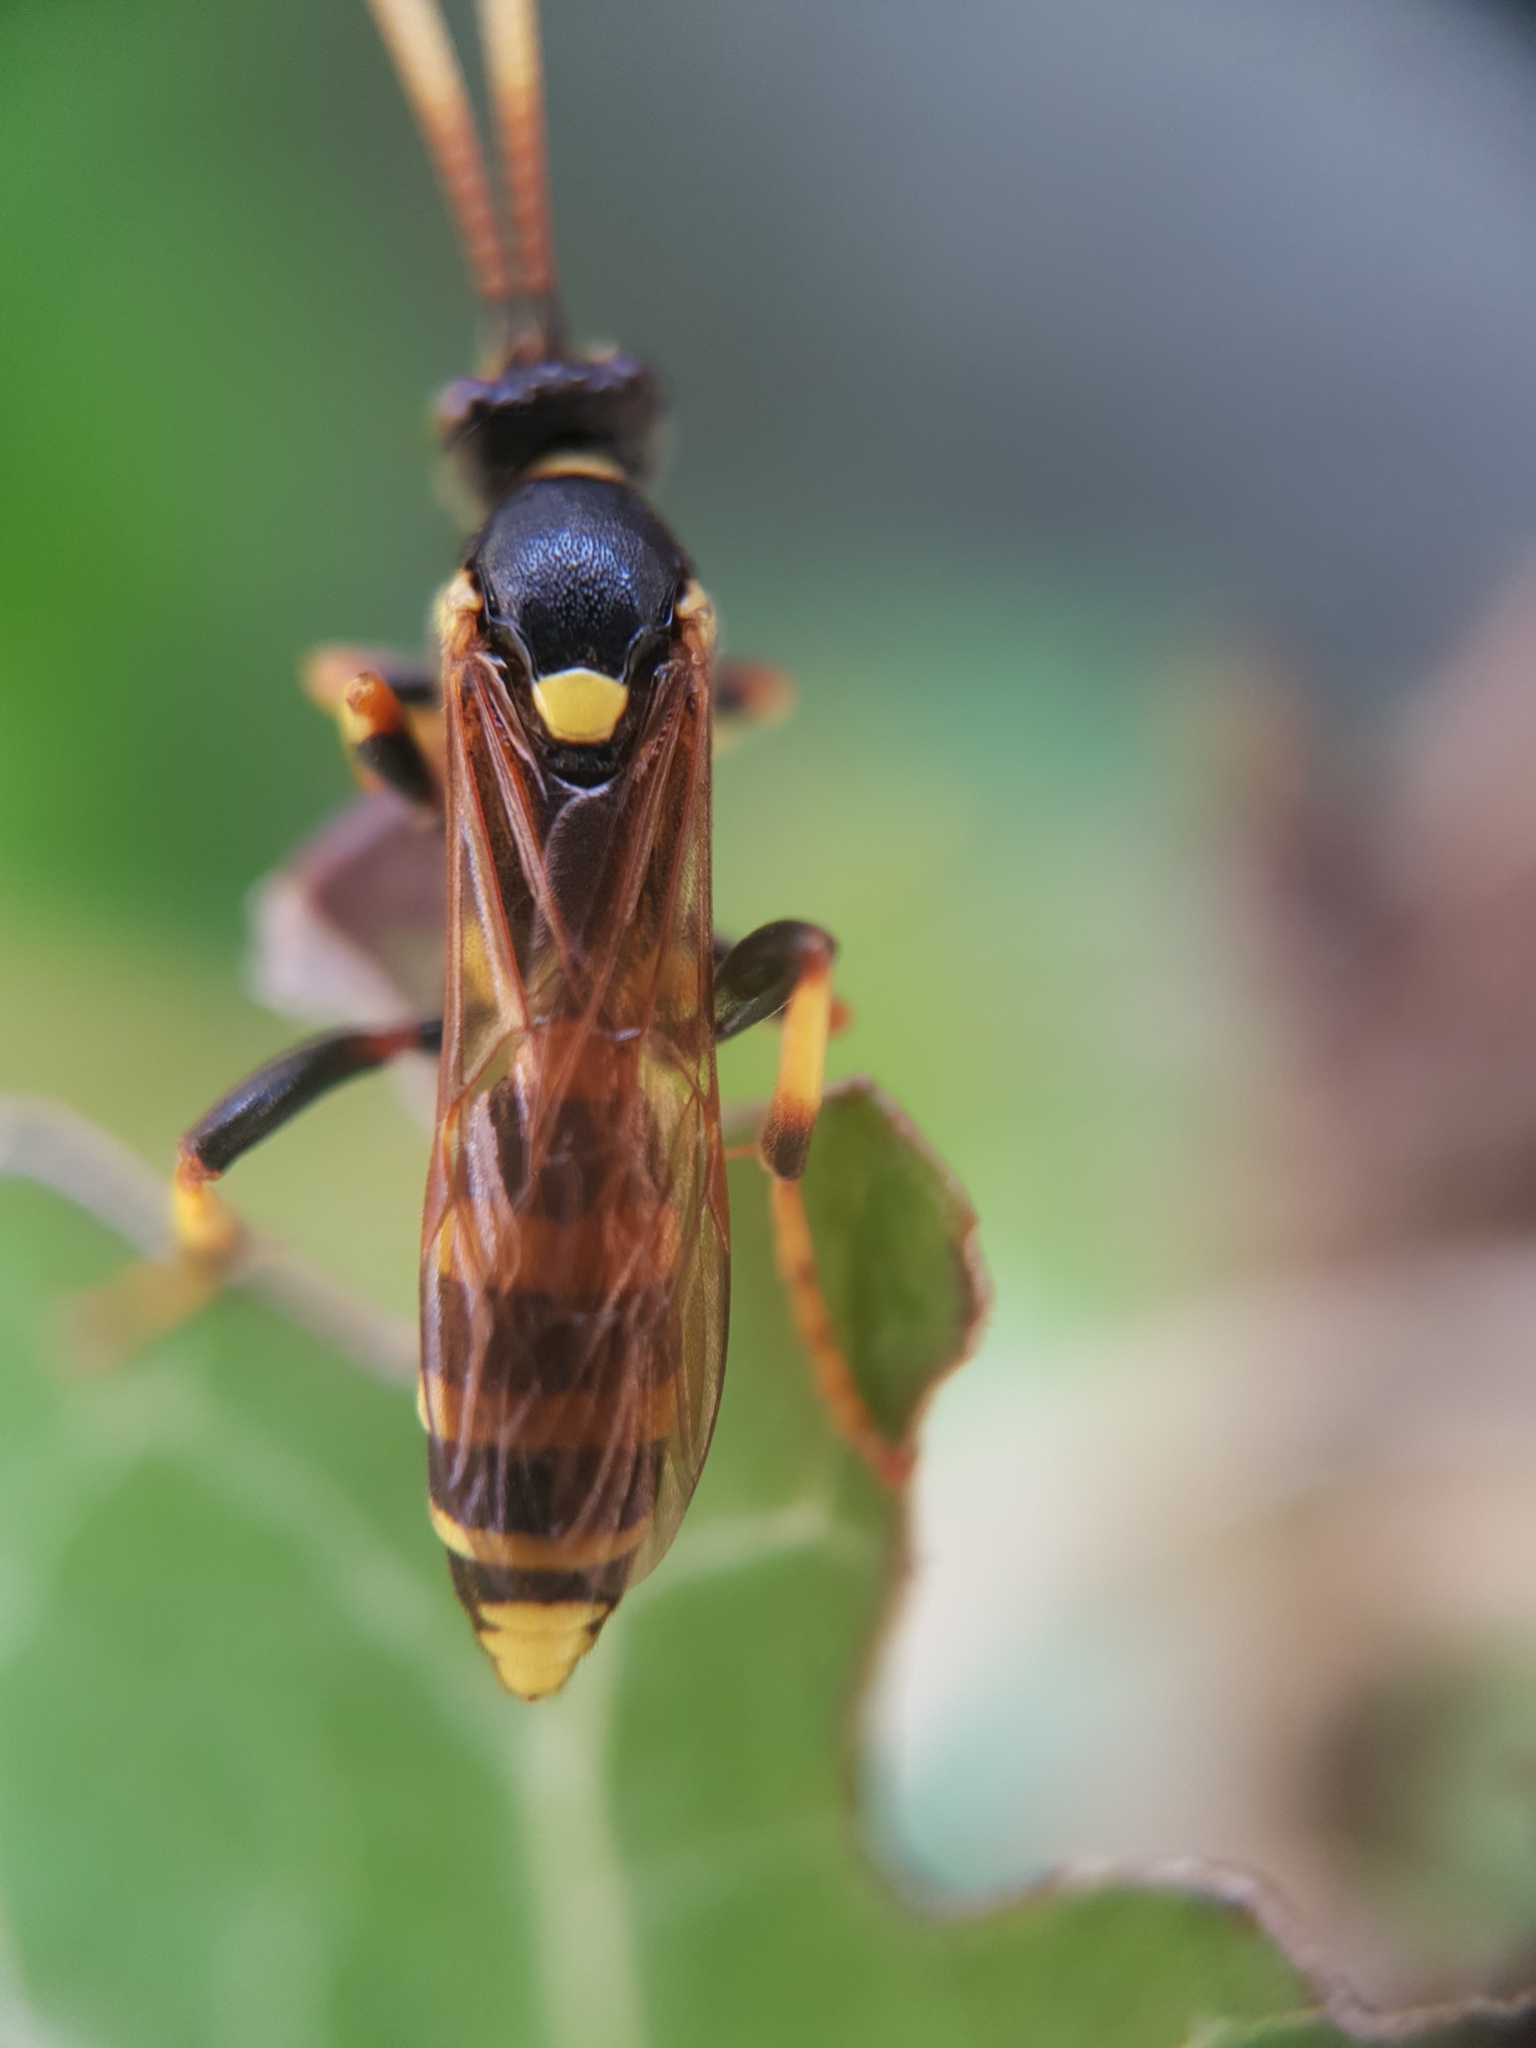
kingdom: Animalia
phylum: Arthropoda
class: Insecta
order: Hymenoptera
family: Ichneumonidae
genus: Ichneumon
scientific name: Ichneumon xanthorius
